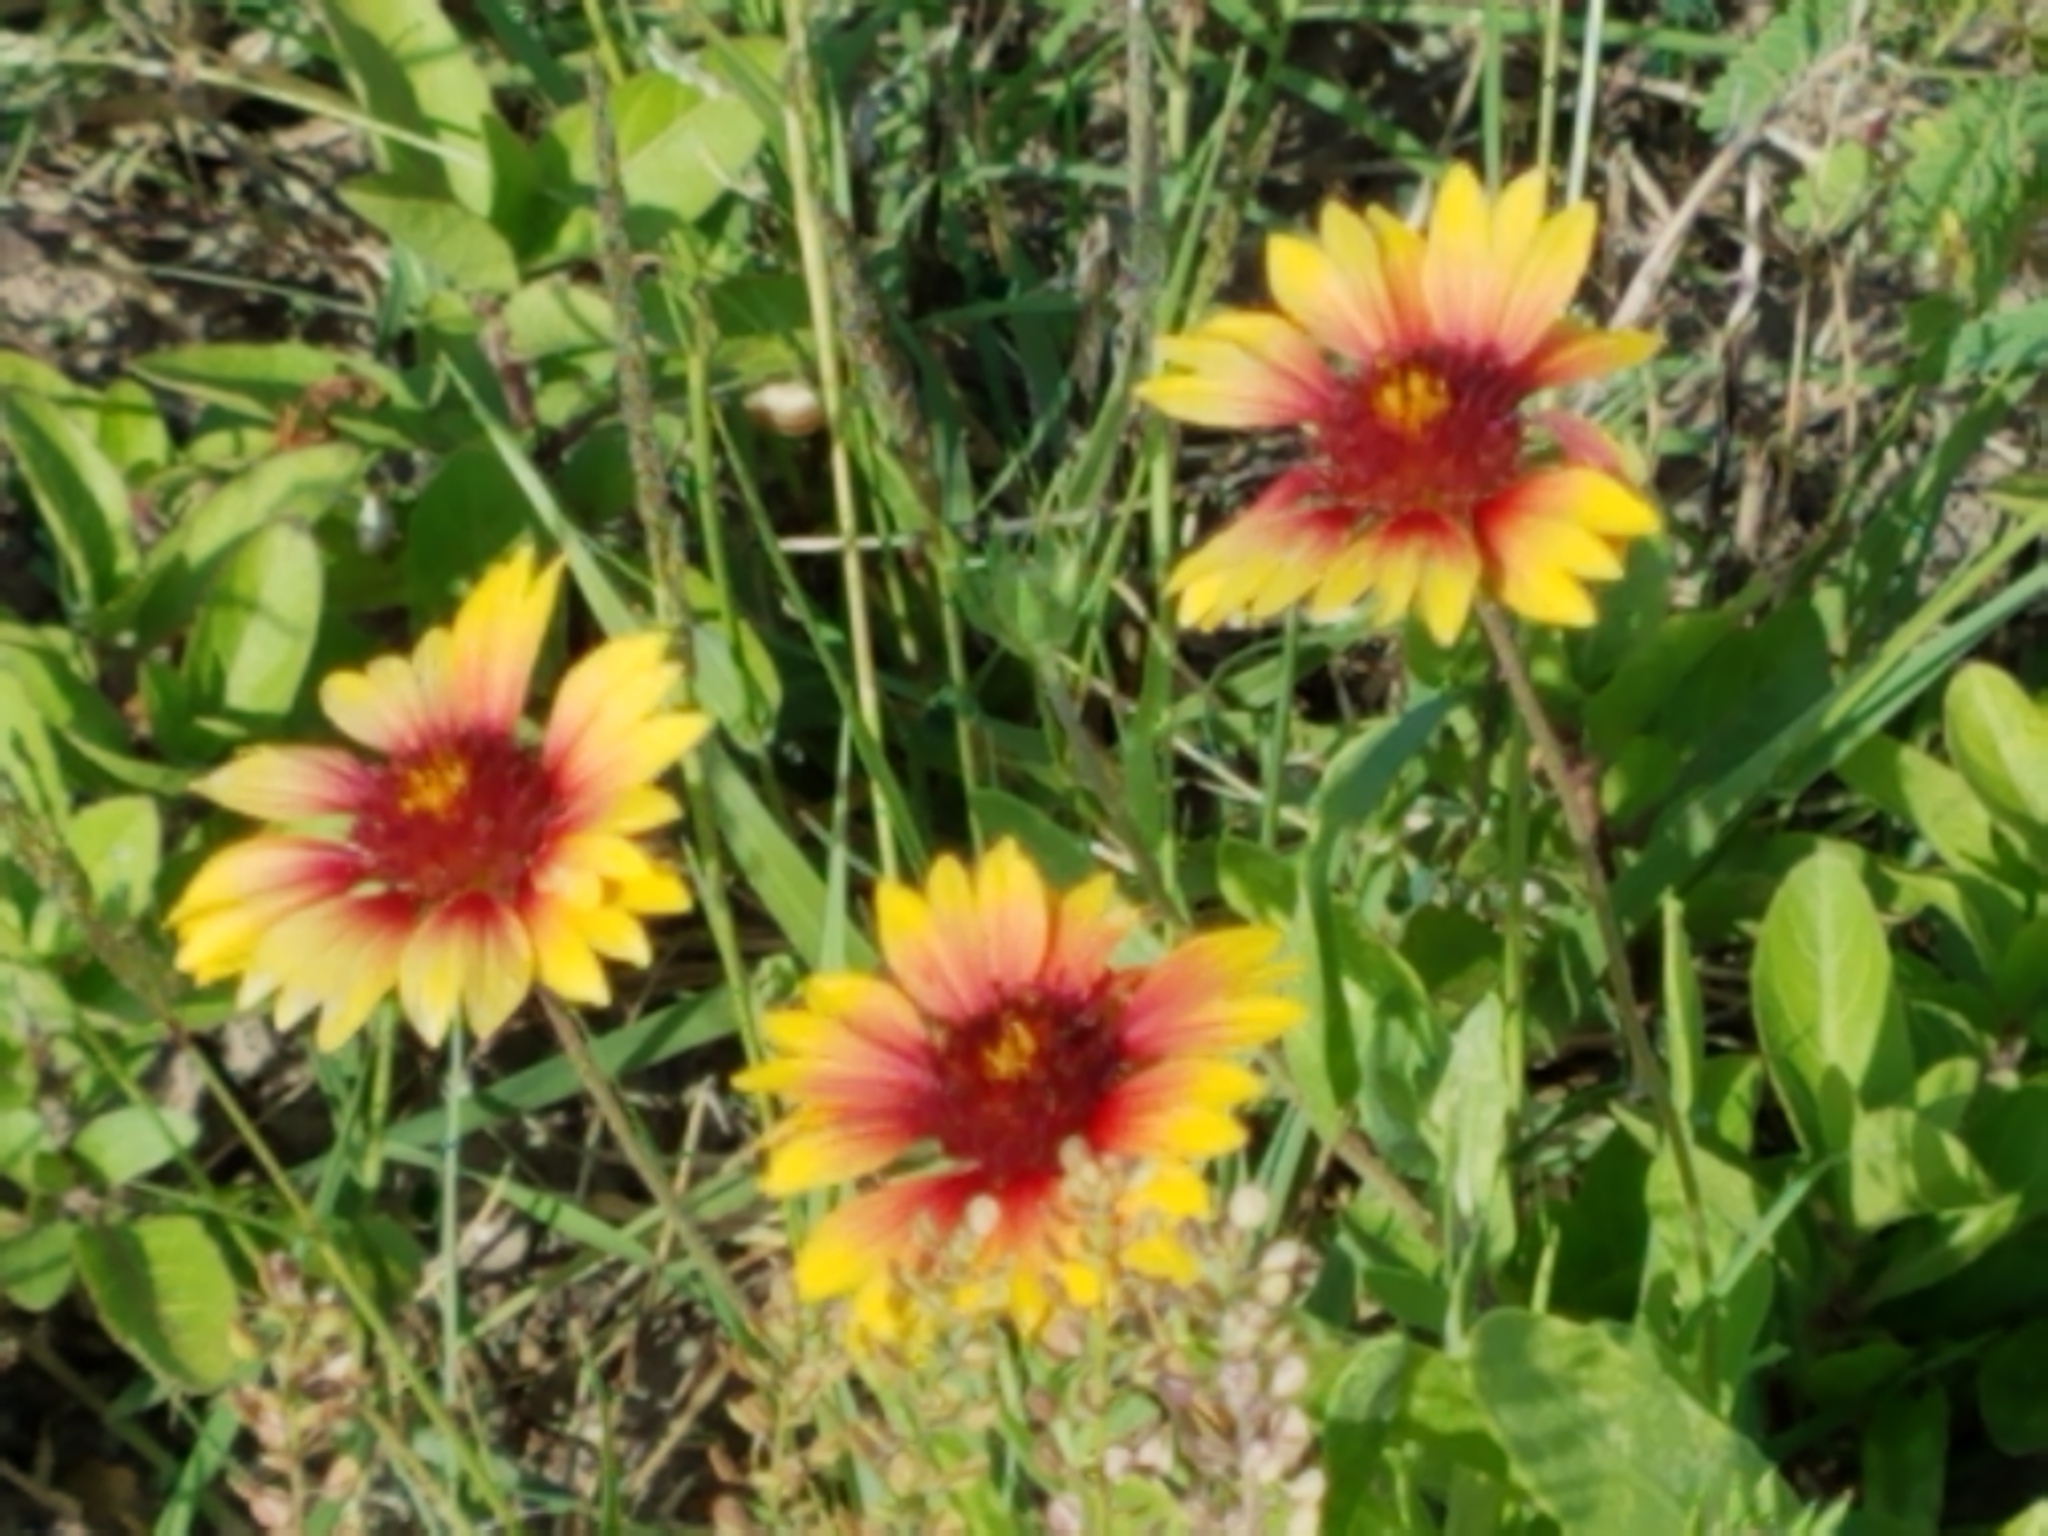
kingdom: Plantae
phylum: Tracheophyta
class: Magnoliopsida
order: Asterales
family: Asteraceae
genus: Gaillardia
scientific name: Gaillardia pulchella
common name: Firewheel
